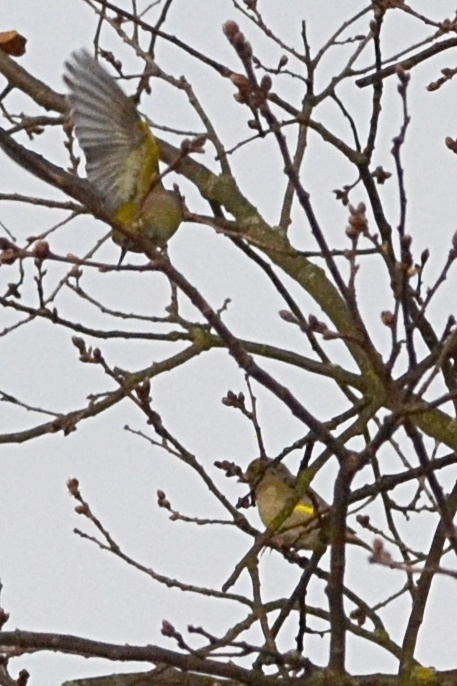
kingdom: Plantae
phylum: Tracheophyta
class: Liliopsida
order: Poales
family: Poaceae
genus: Chloris
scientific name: Chloris chloris
